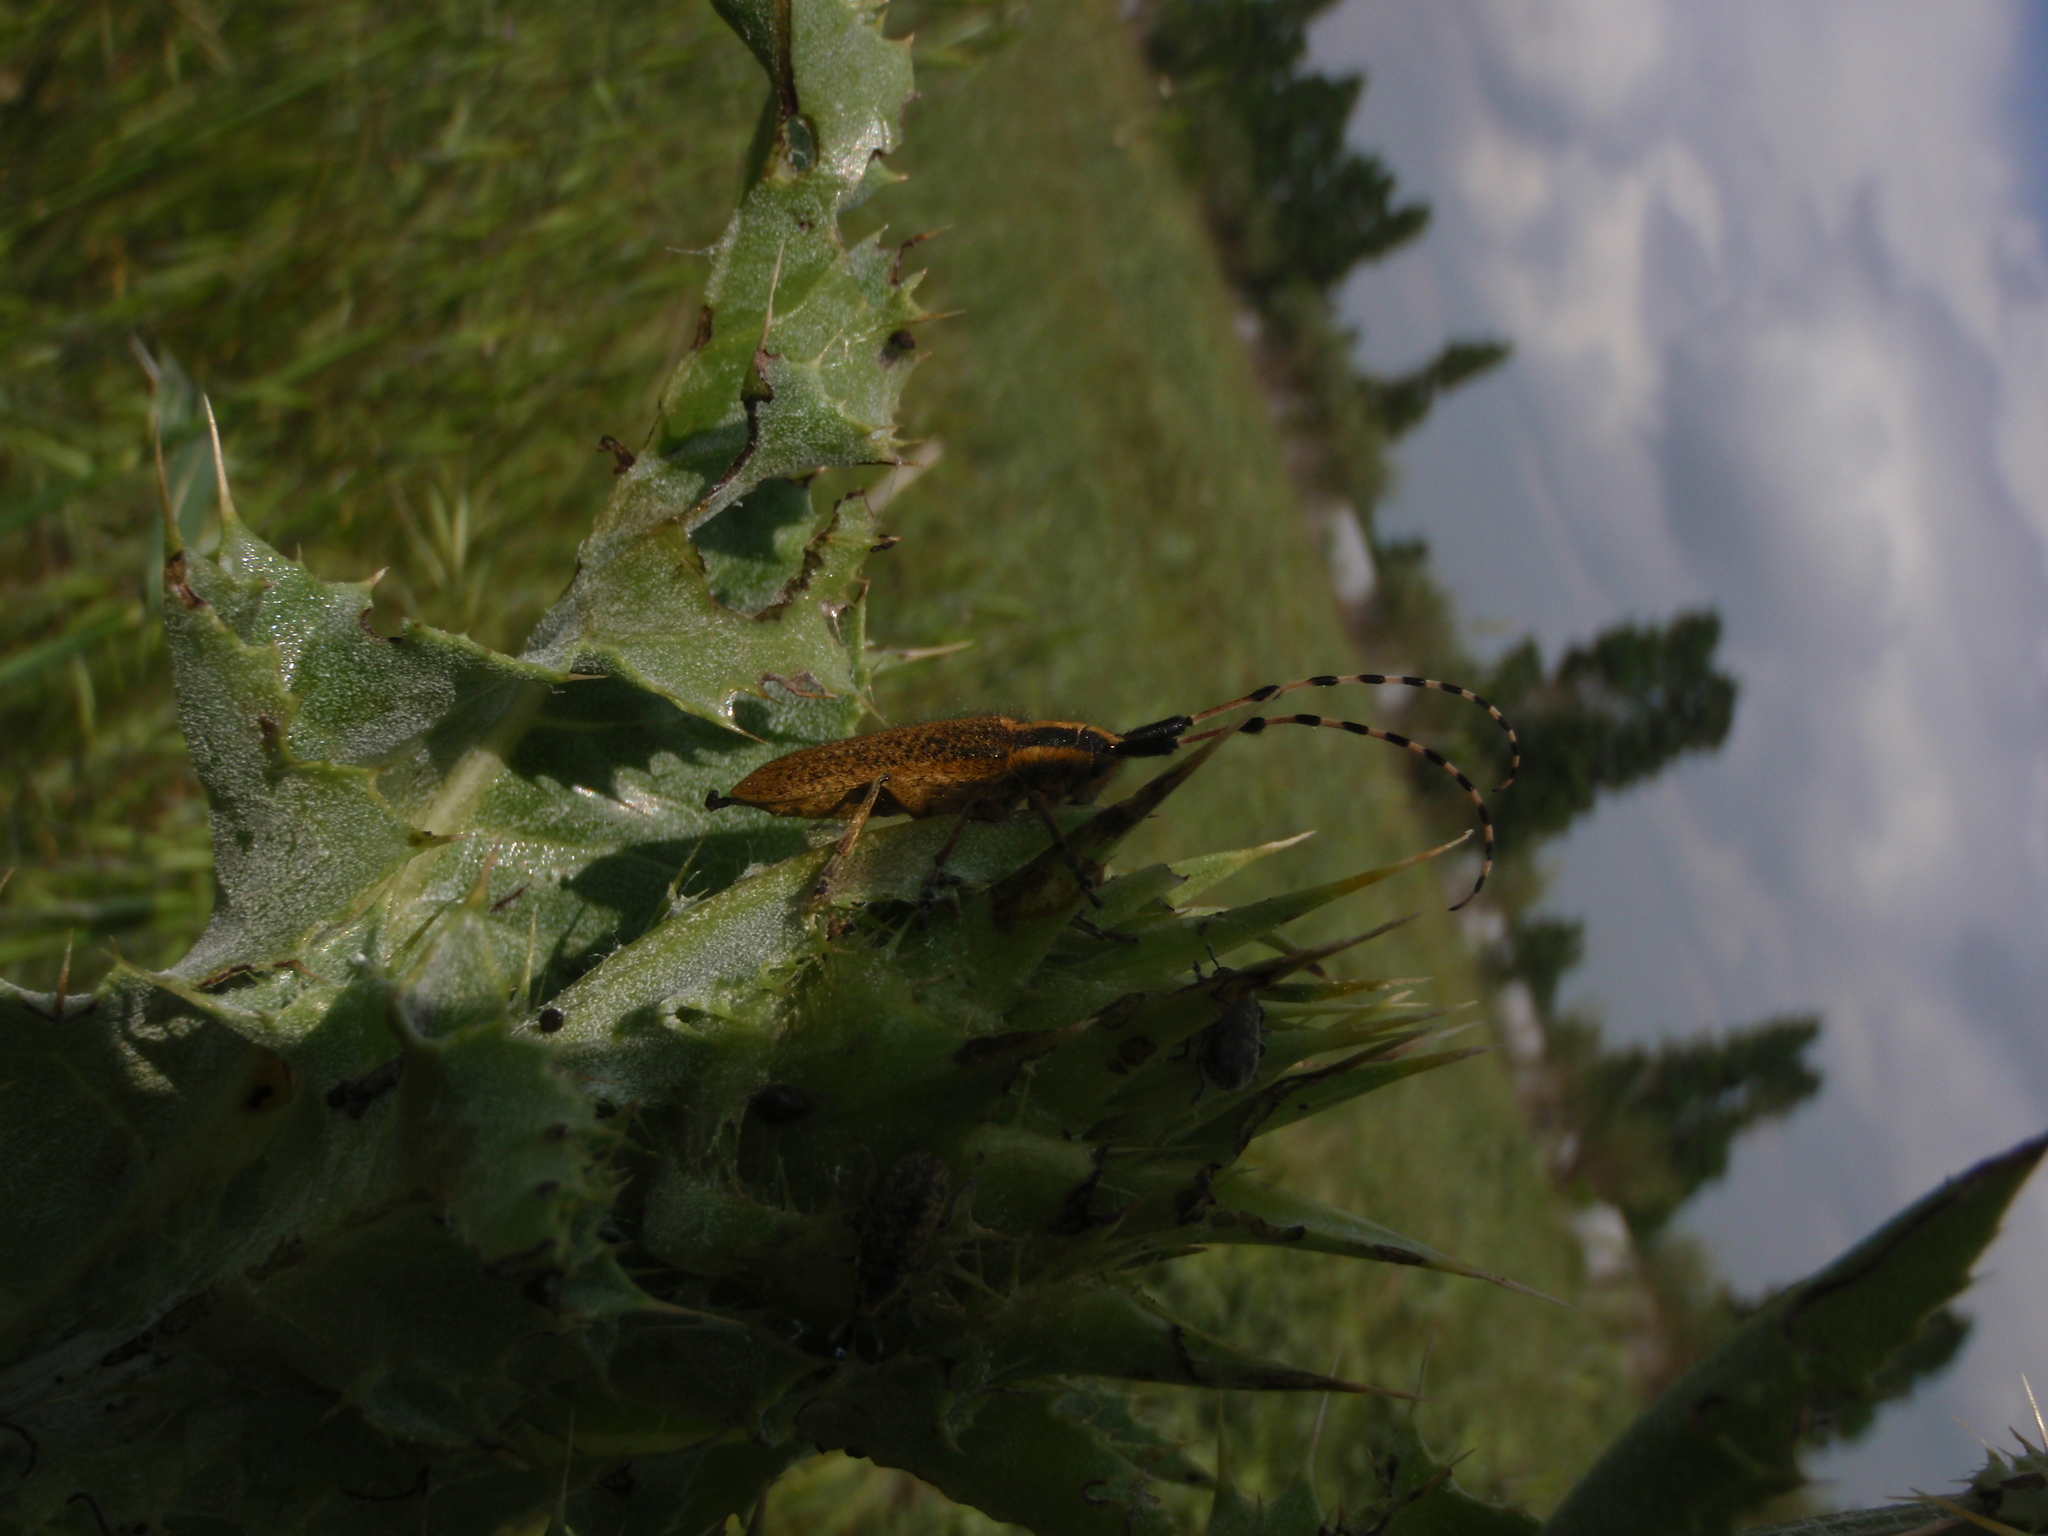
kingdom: Animalia
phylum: Arthropoda
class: Insecta
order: Coleoptera
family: Cerambycidae
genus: Agapanthia
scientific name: Agapanthia dahlii
